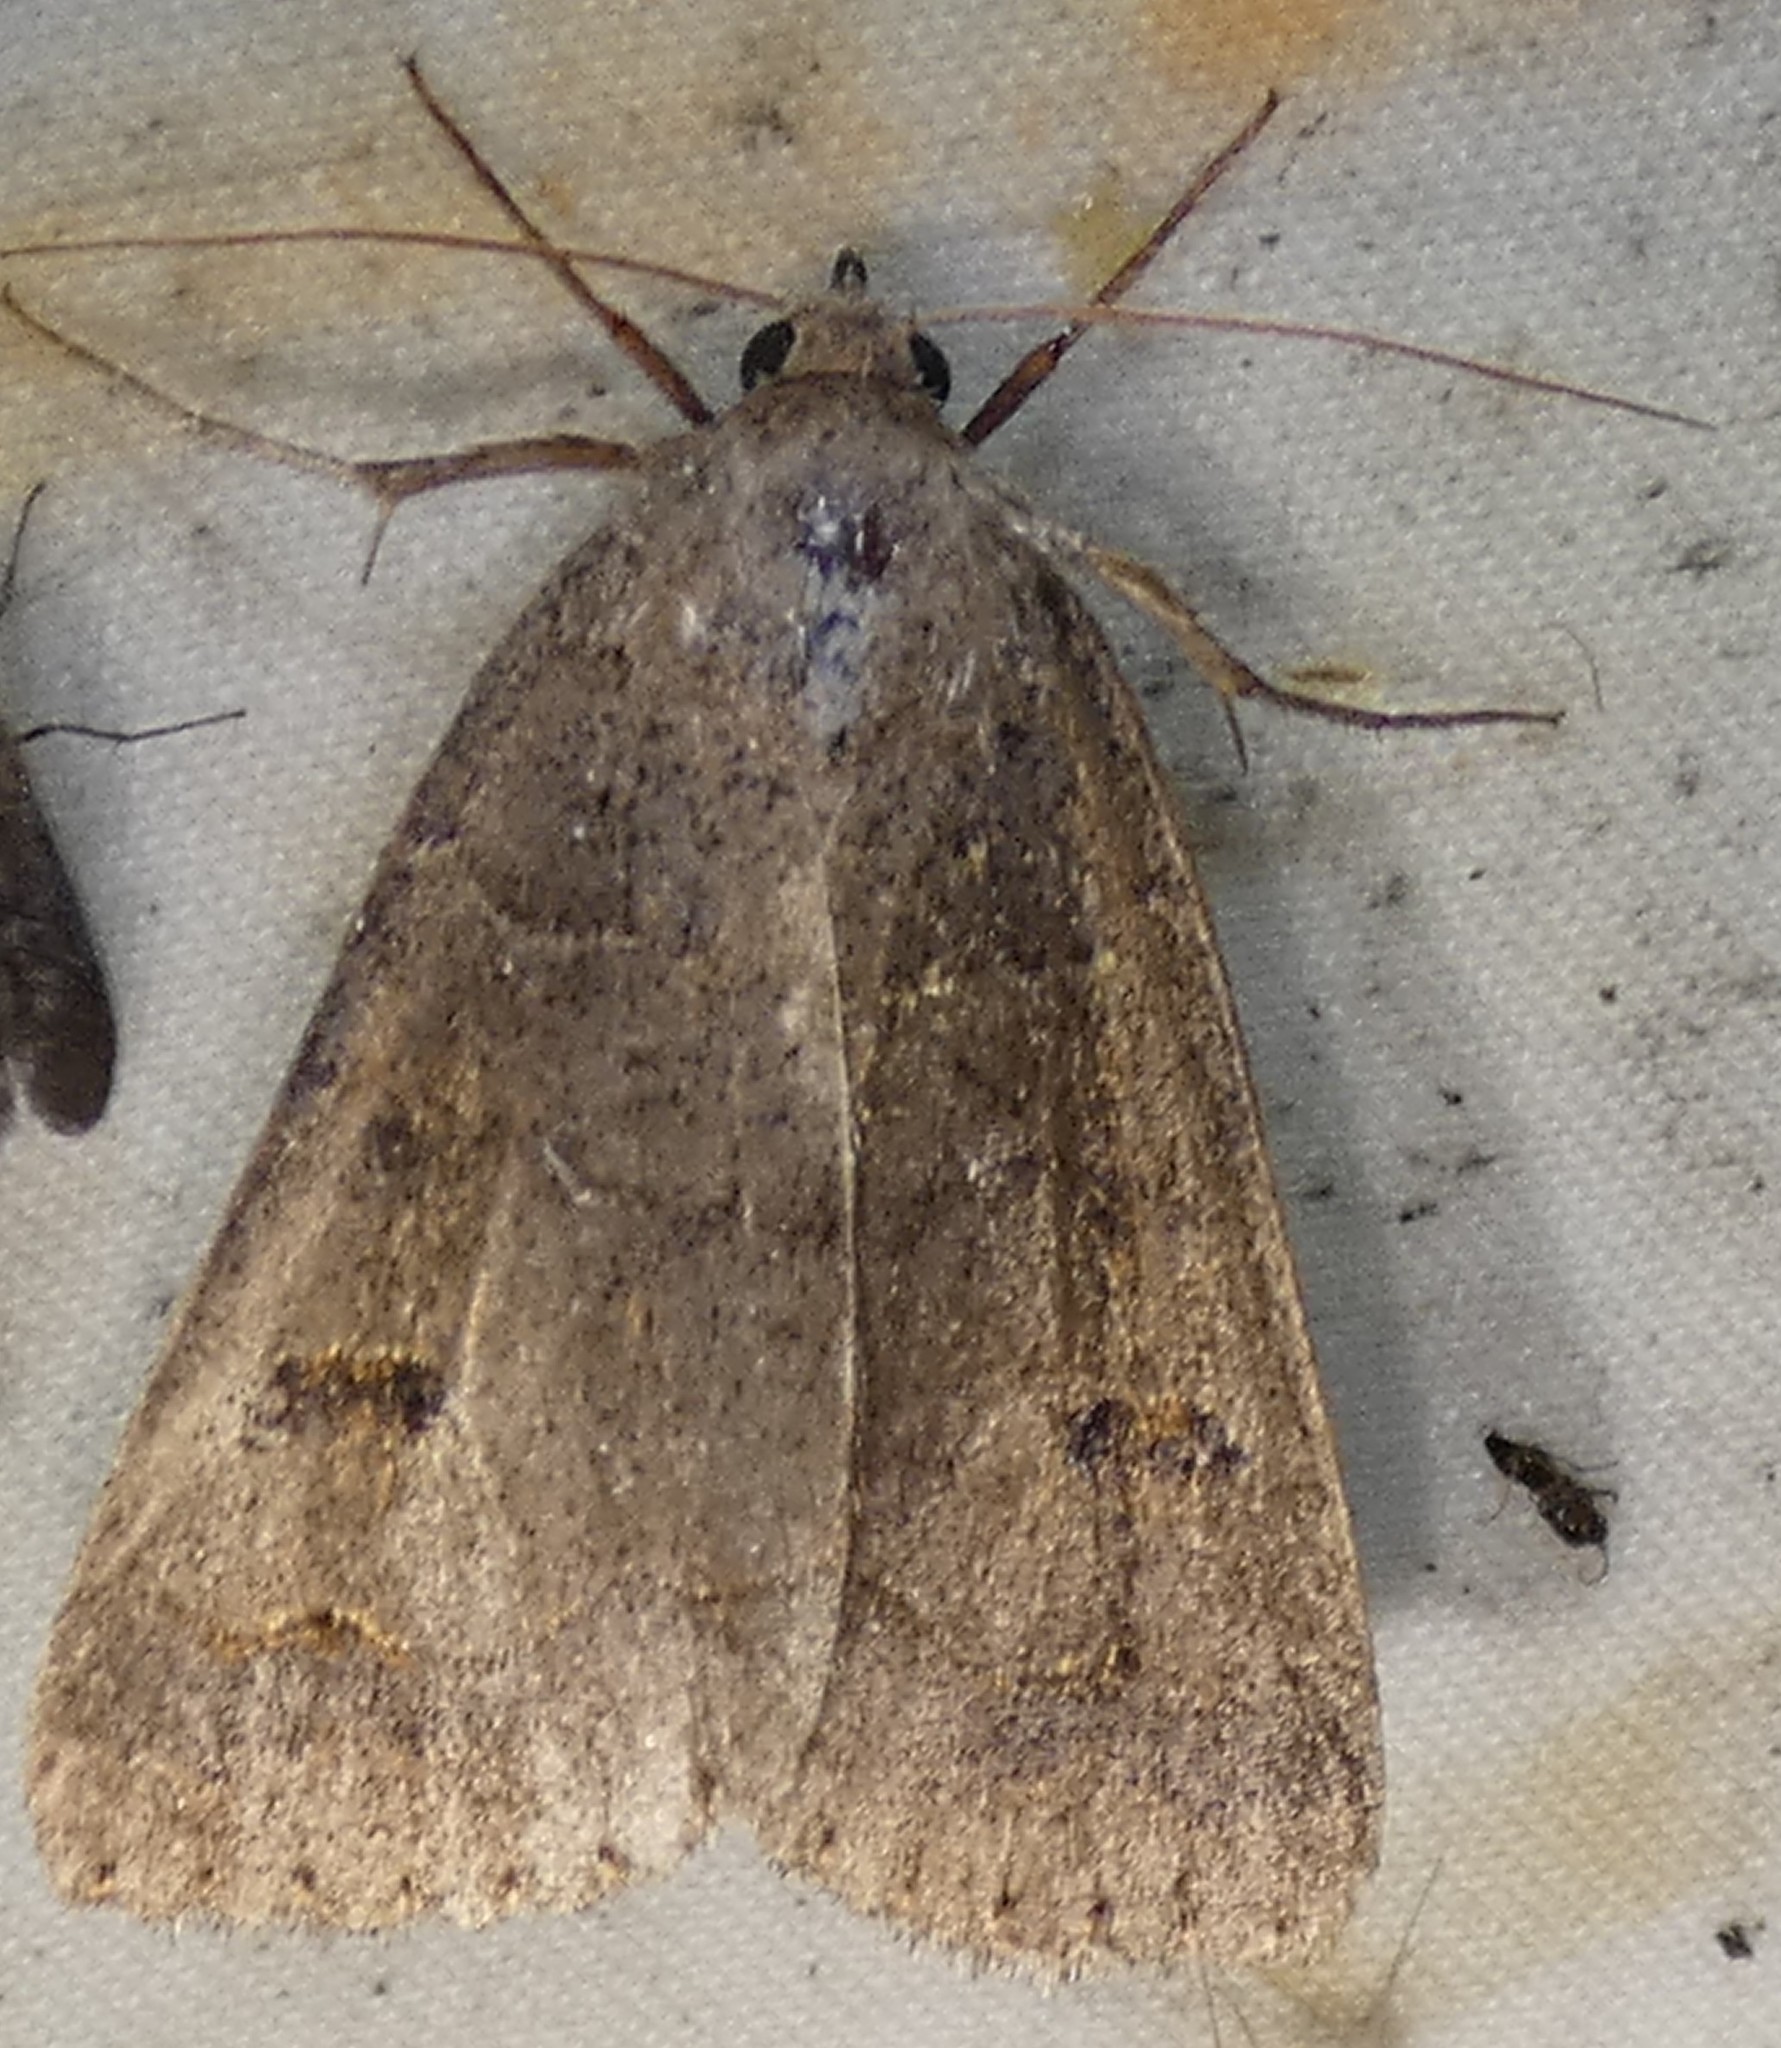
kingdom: Animalia
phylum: Arthropoda
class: Insecta
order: Lepidoptera
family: Erebidae
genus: Phoberia
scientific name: Phoberia atomaris
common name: Common oak moth
